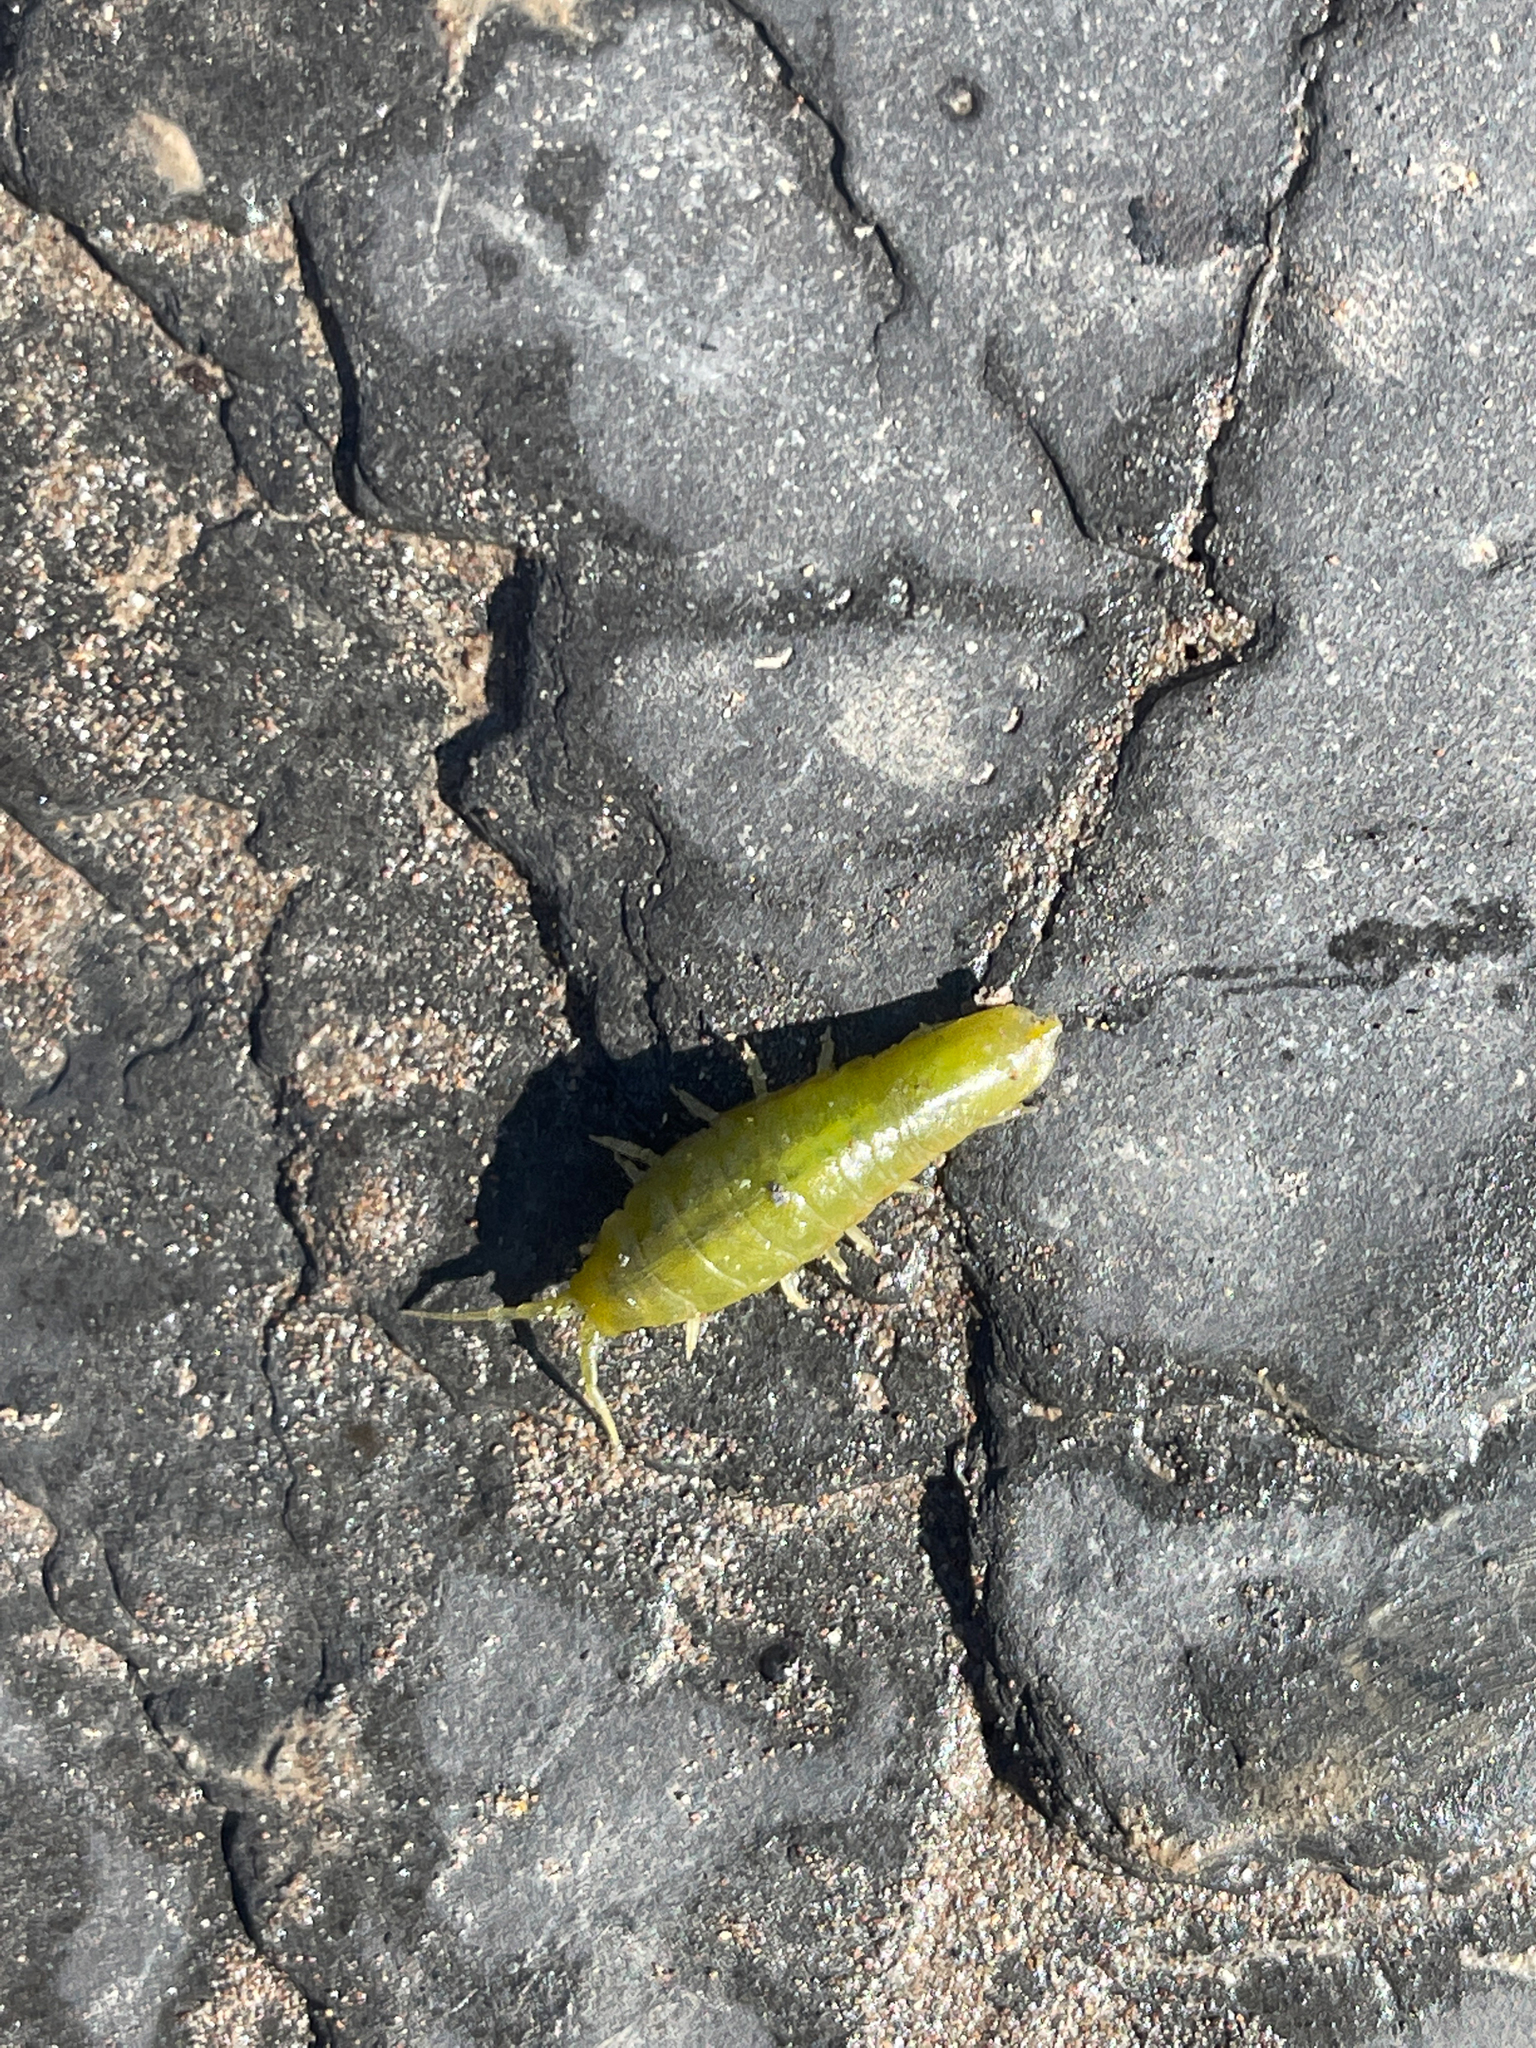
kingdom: Animalia
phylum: Arthropoda
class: Malacostraca
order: Isopoda
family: Idoteidae
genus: Idotea
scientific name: Idotea granulosa
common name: Granular marine isopod
